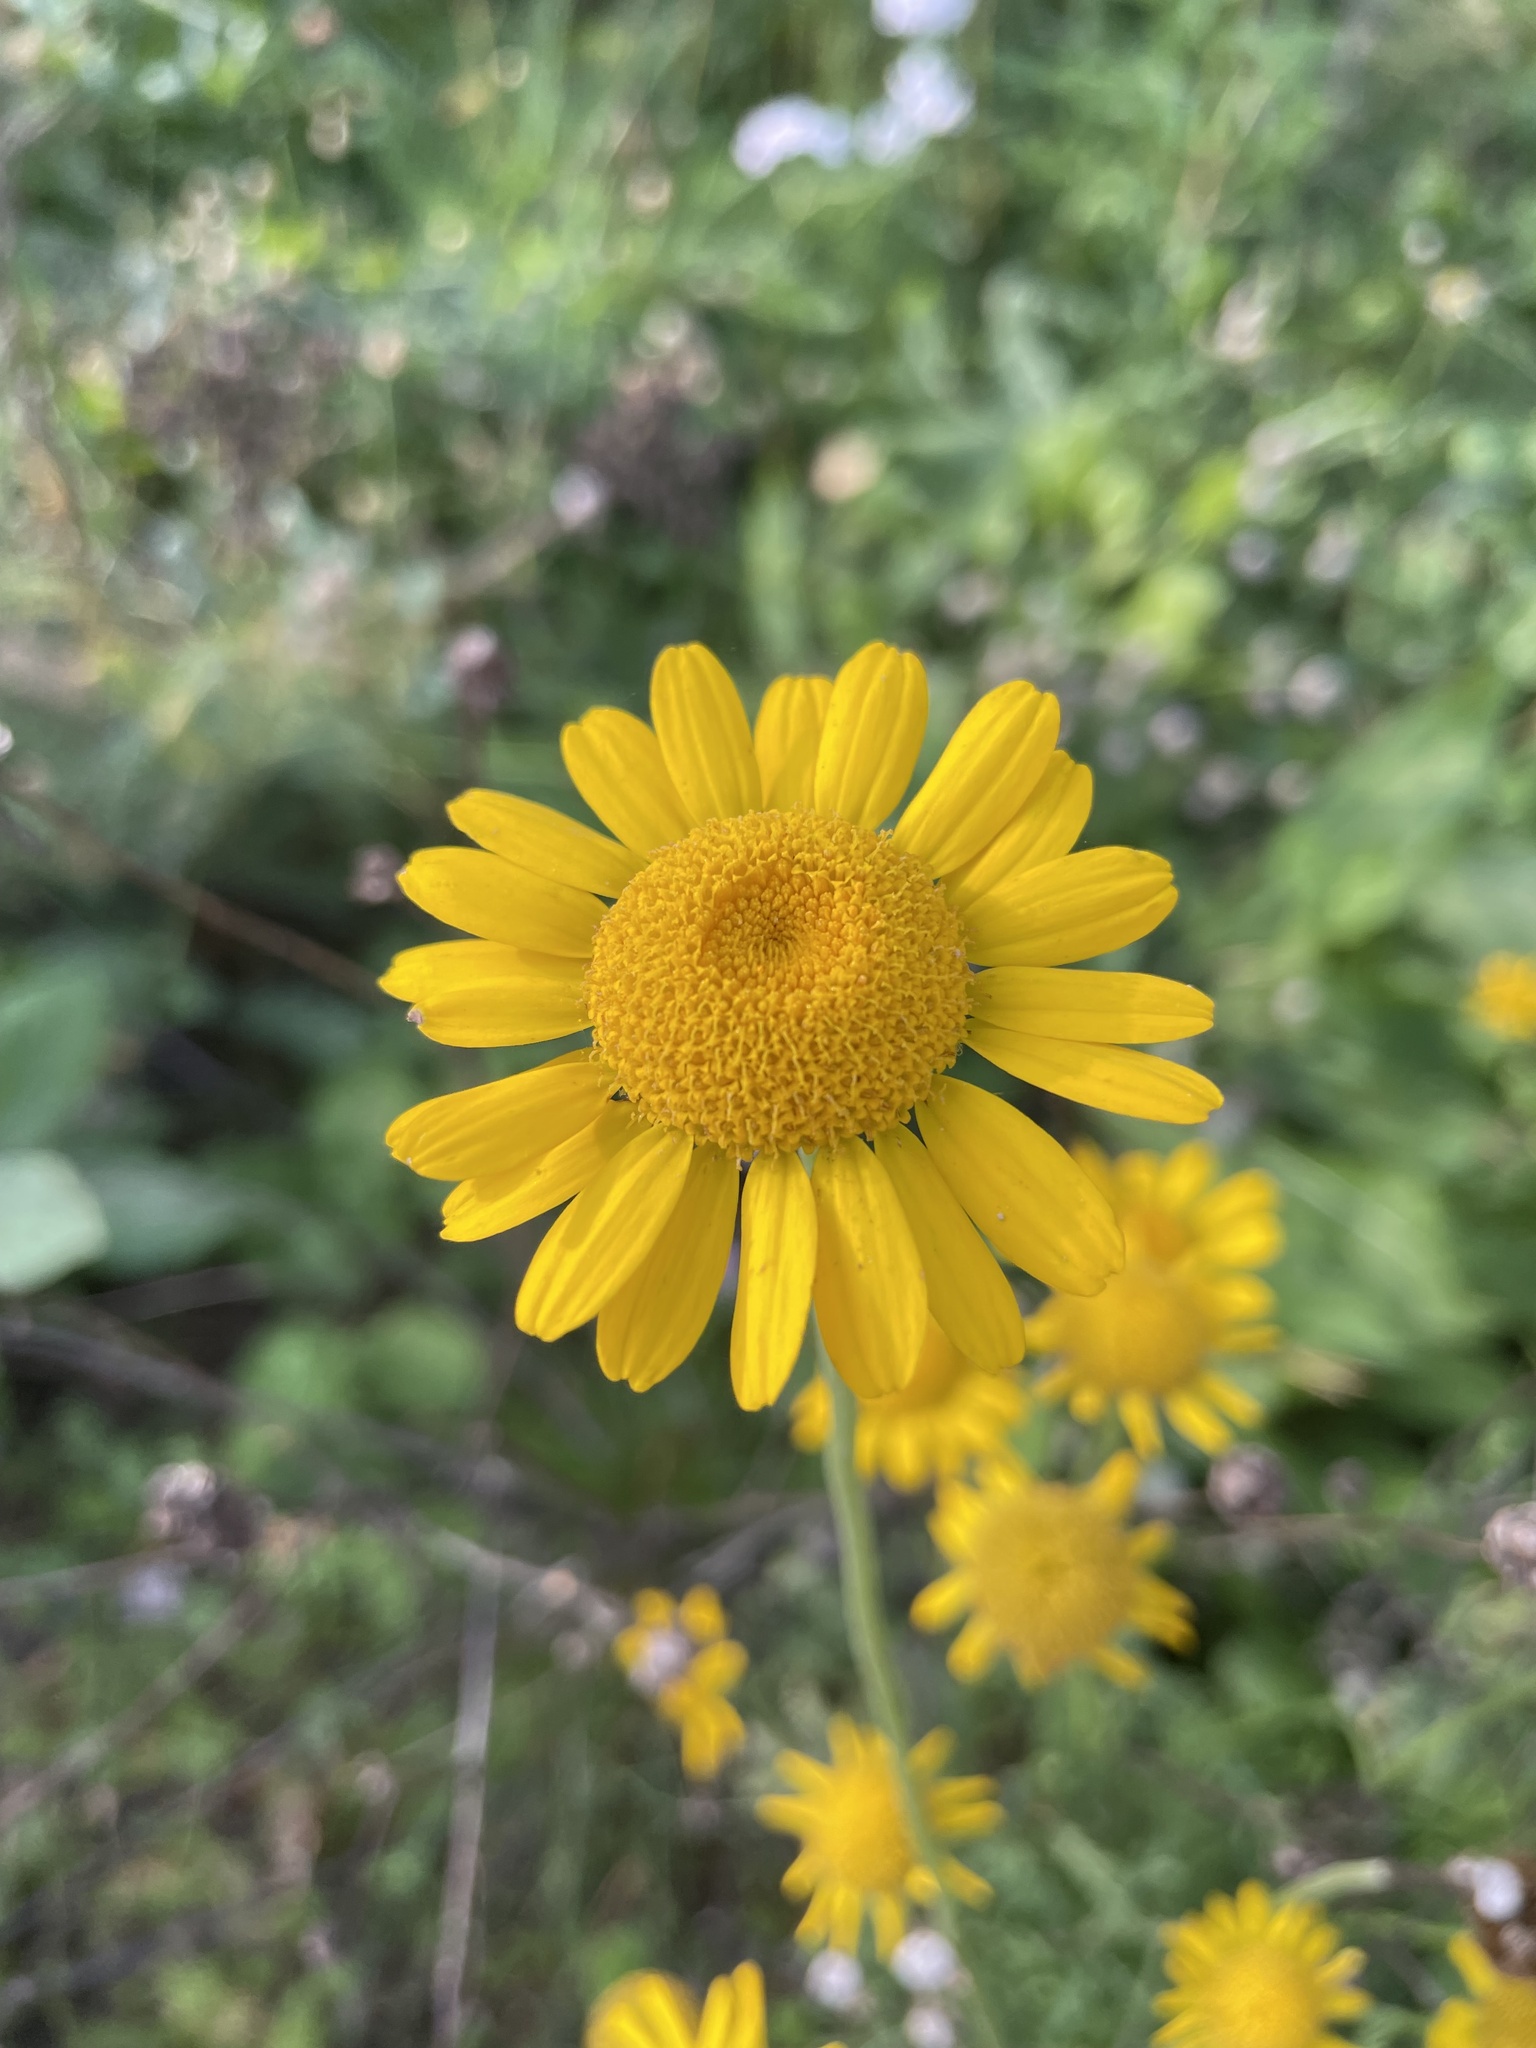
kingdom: Plantae
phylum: Tracheophyta
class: Magnoliopsida
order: Asterales
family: Asteraceae
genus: Cota
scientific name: Cota tinctoria
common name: Golden chamomile
